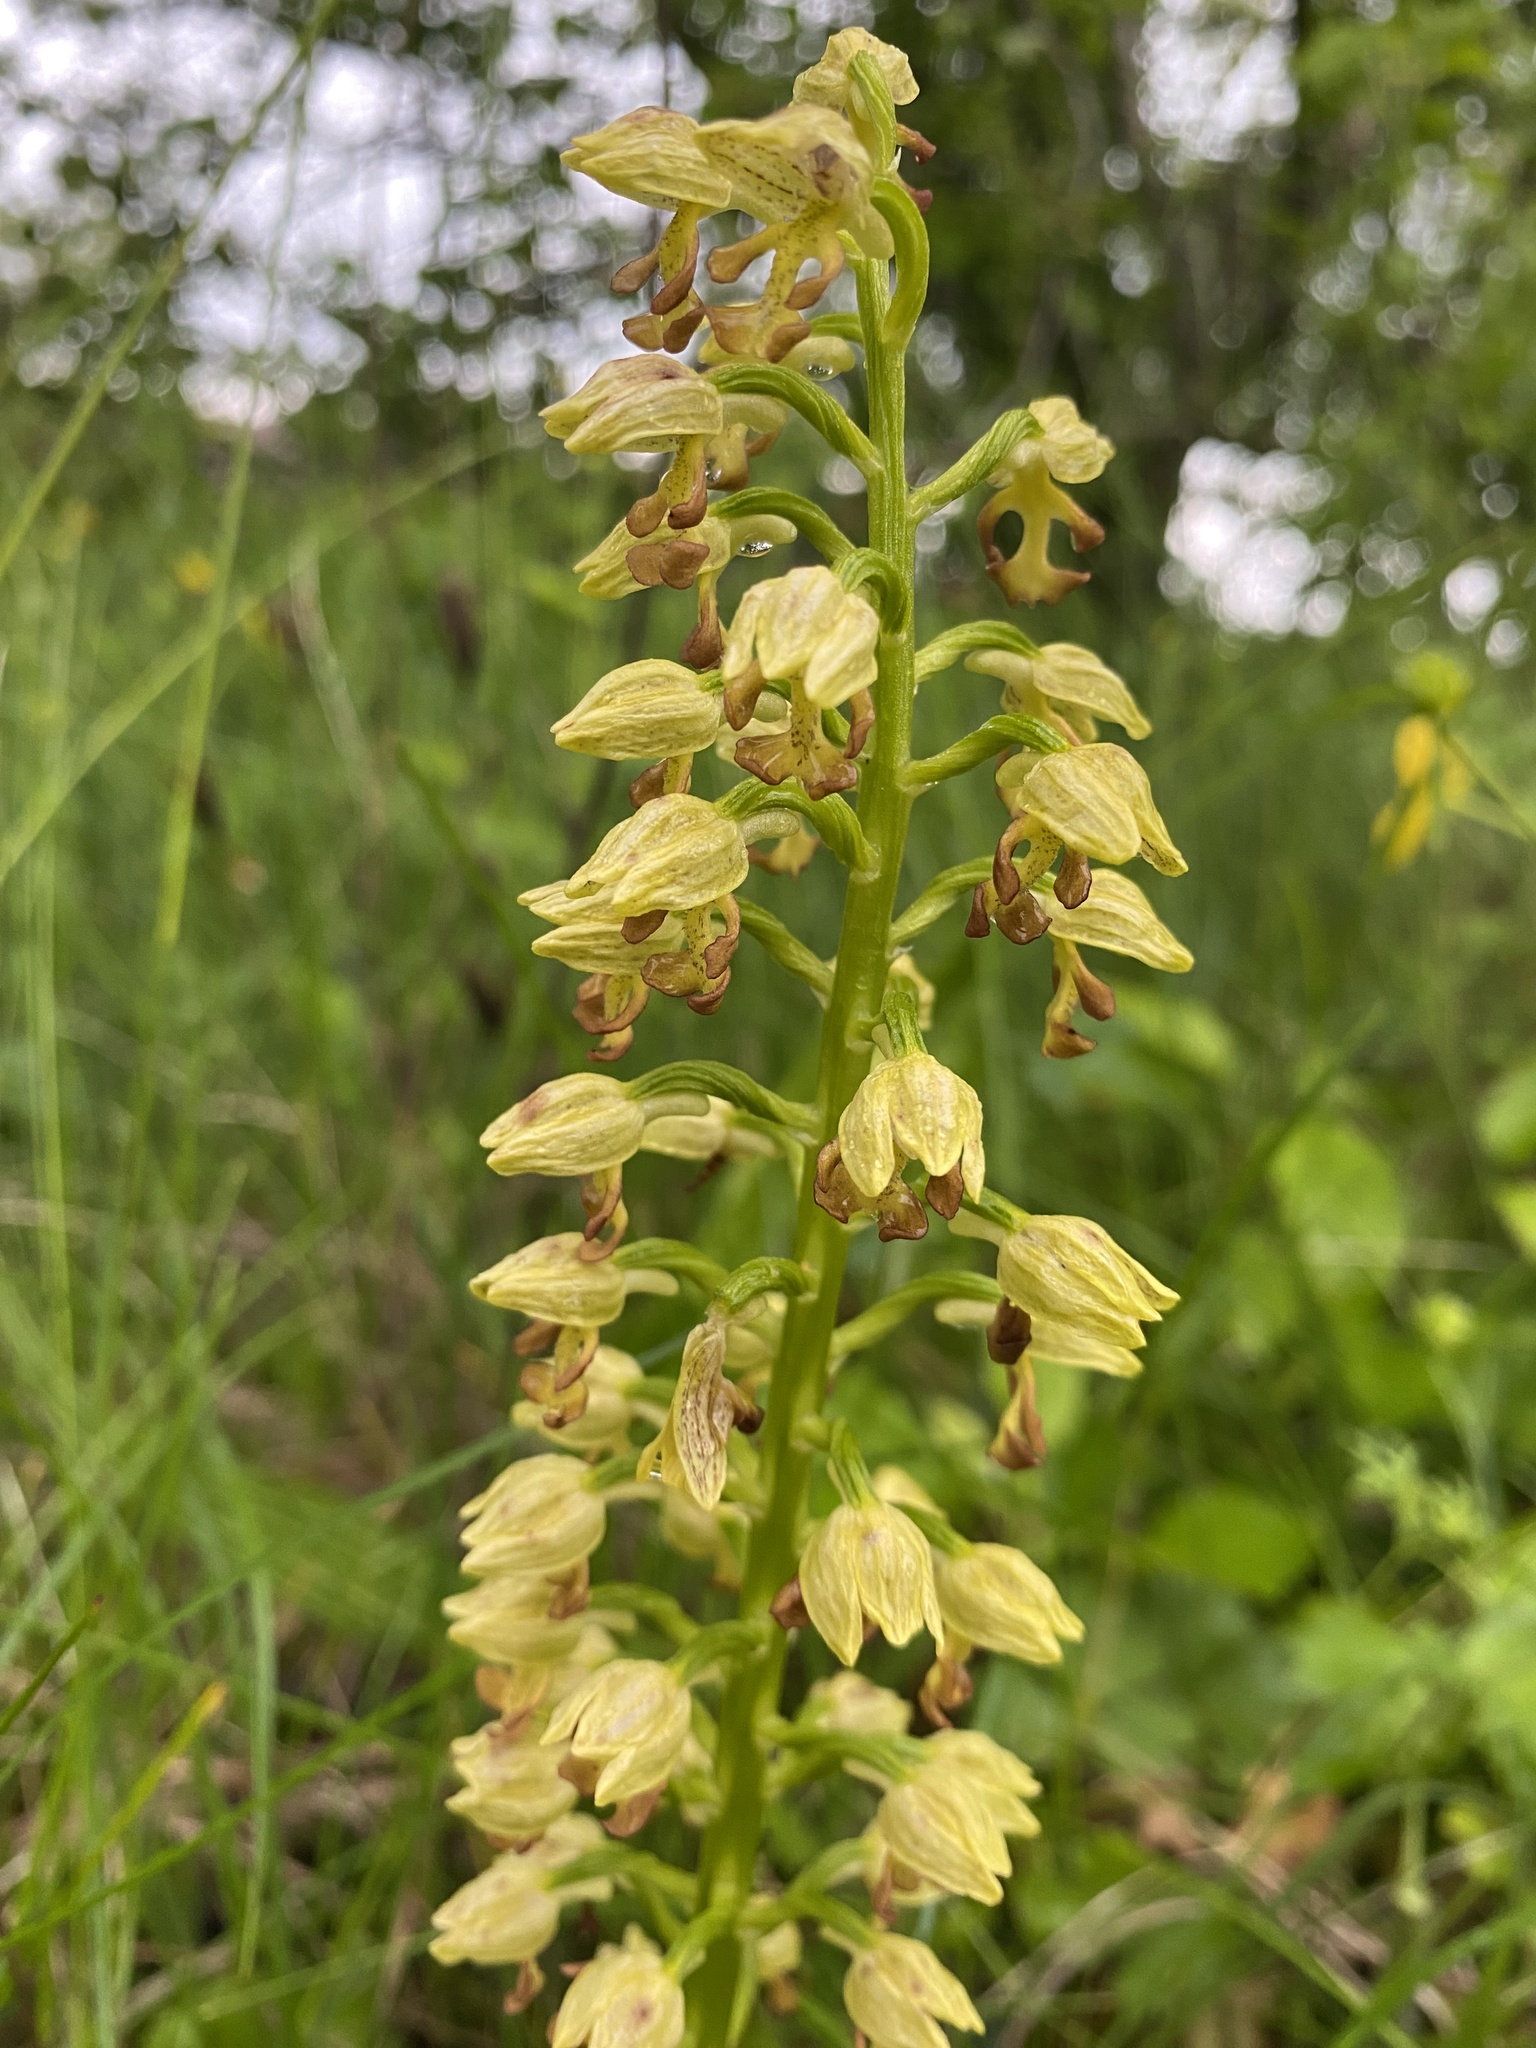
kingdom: Plantae
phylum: Tracheophyta
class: Liliopsida
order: Asparagales
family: Orchidaceae
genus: Orchis
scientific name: Orchis punctulata
